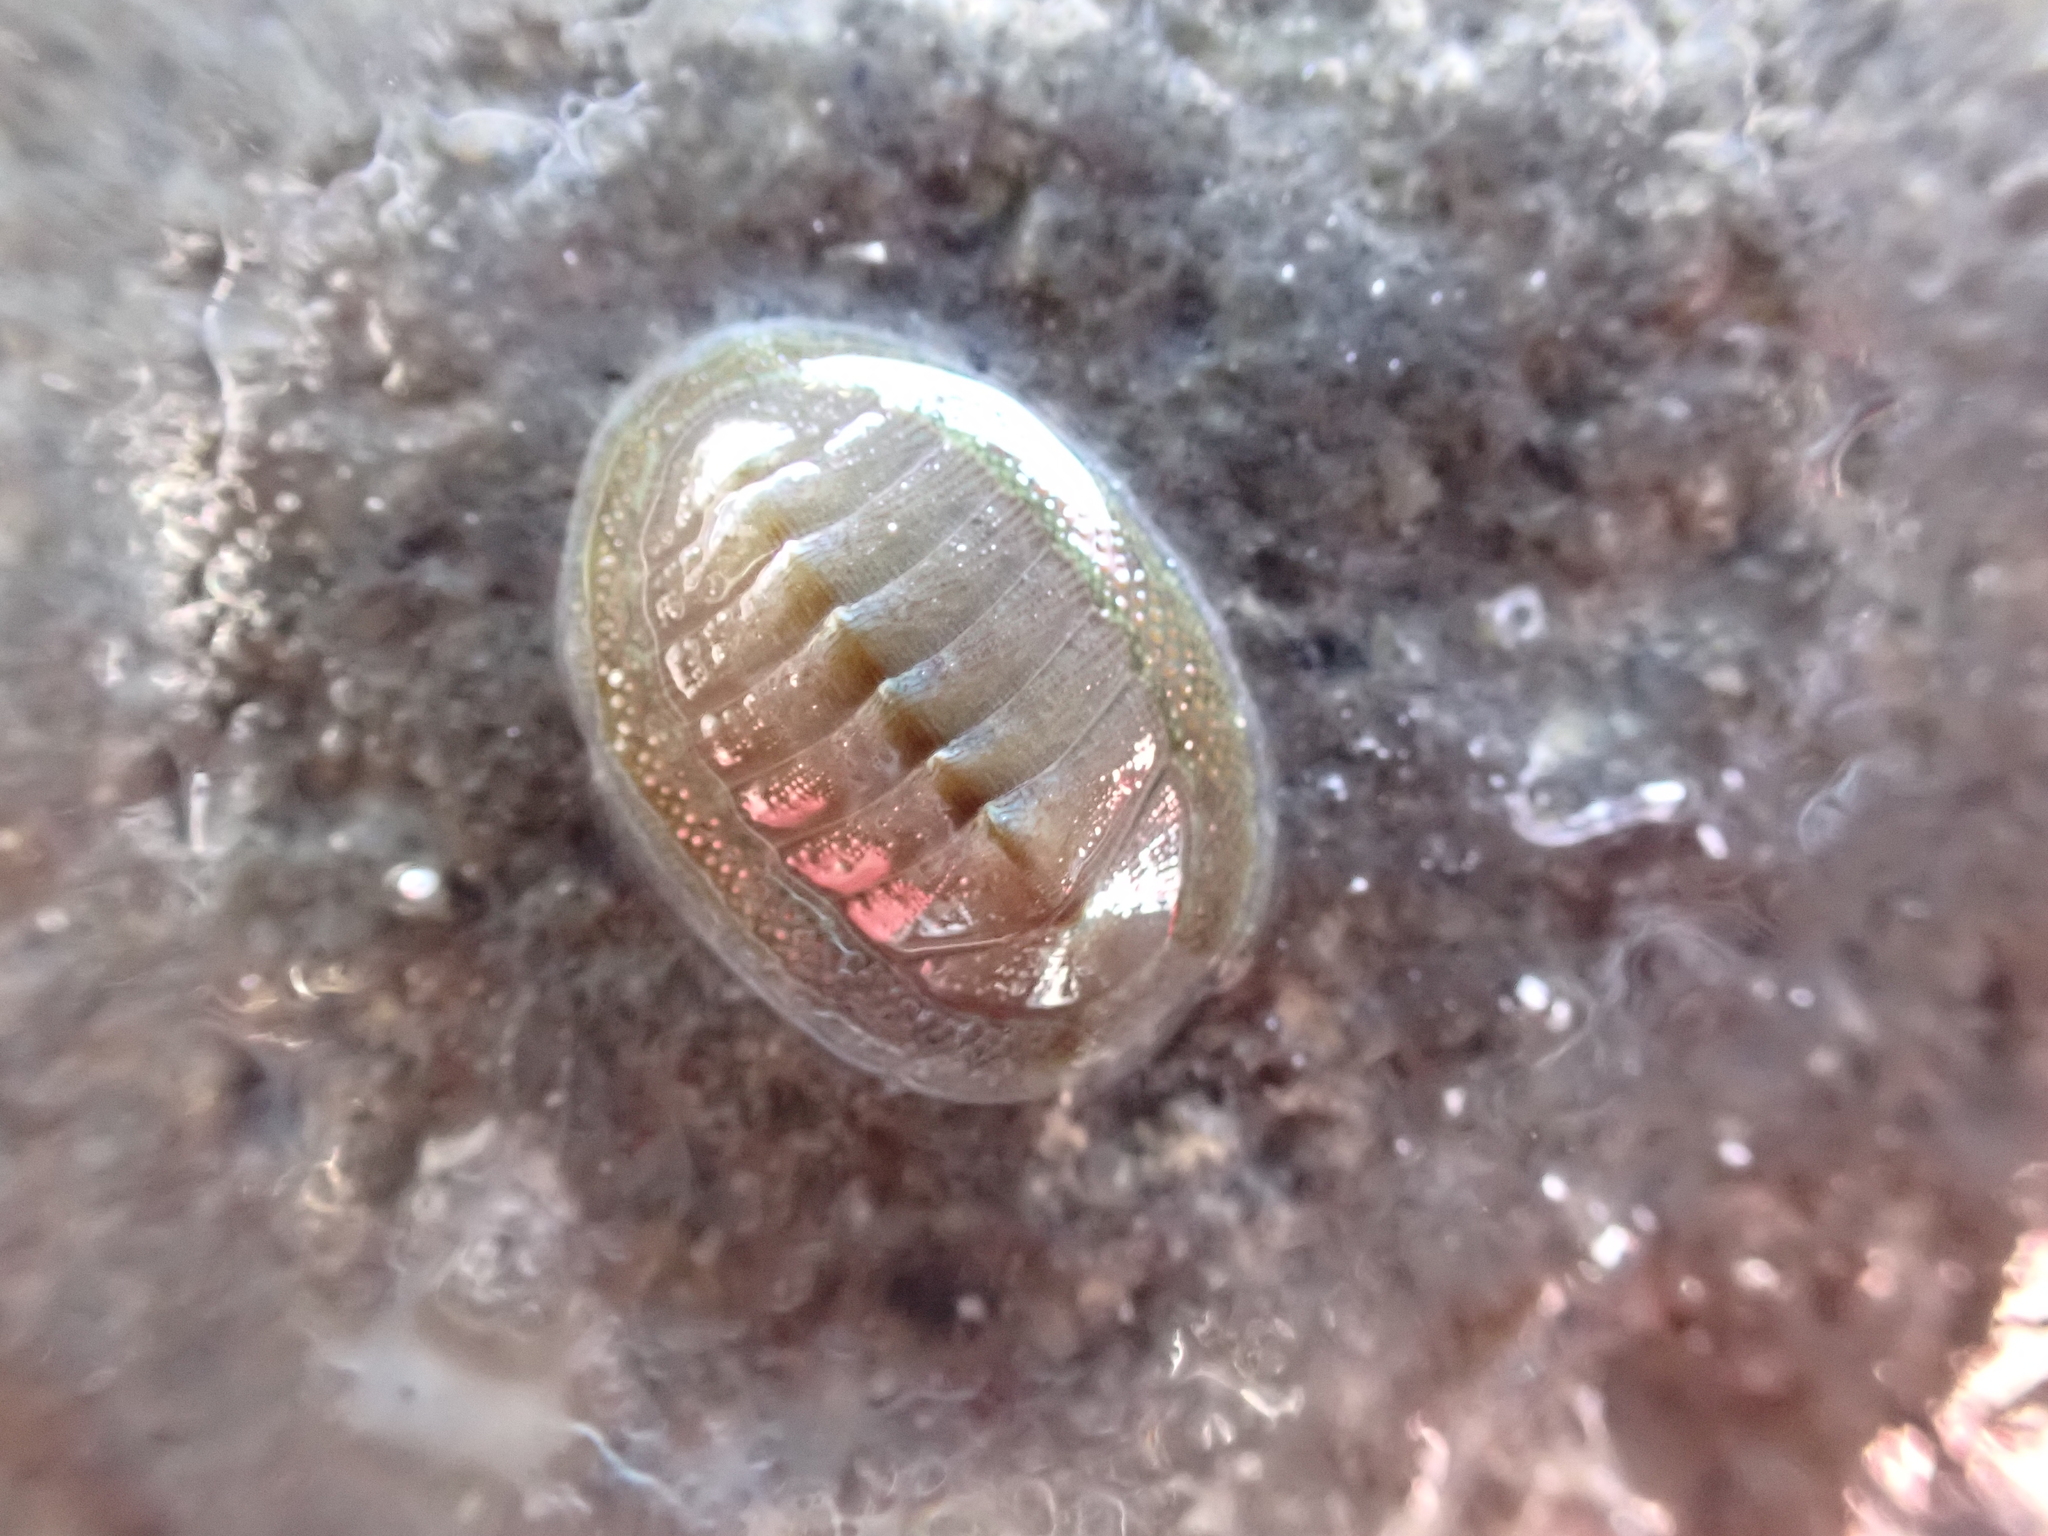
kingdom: Animalia
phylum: Mollusca
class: Polyplacophora
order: Chitonida
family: Chitonidae
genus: Chiton
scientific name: Chiton glaucus
